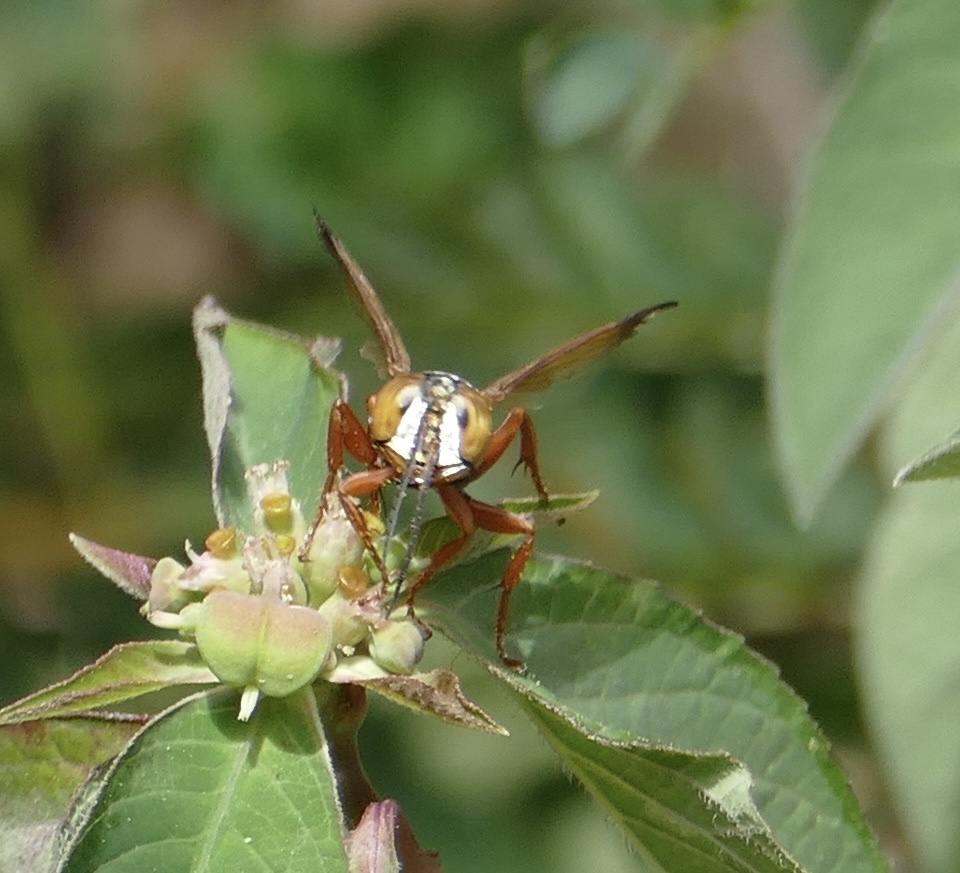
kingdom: Animalia
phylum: Arthropoda
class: Insecta
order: Hymenoptera
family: Crabronidae
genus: Liris
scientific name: Liris haemorrhoidalis
